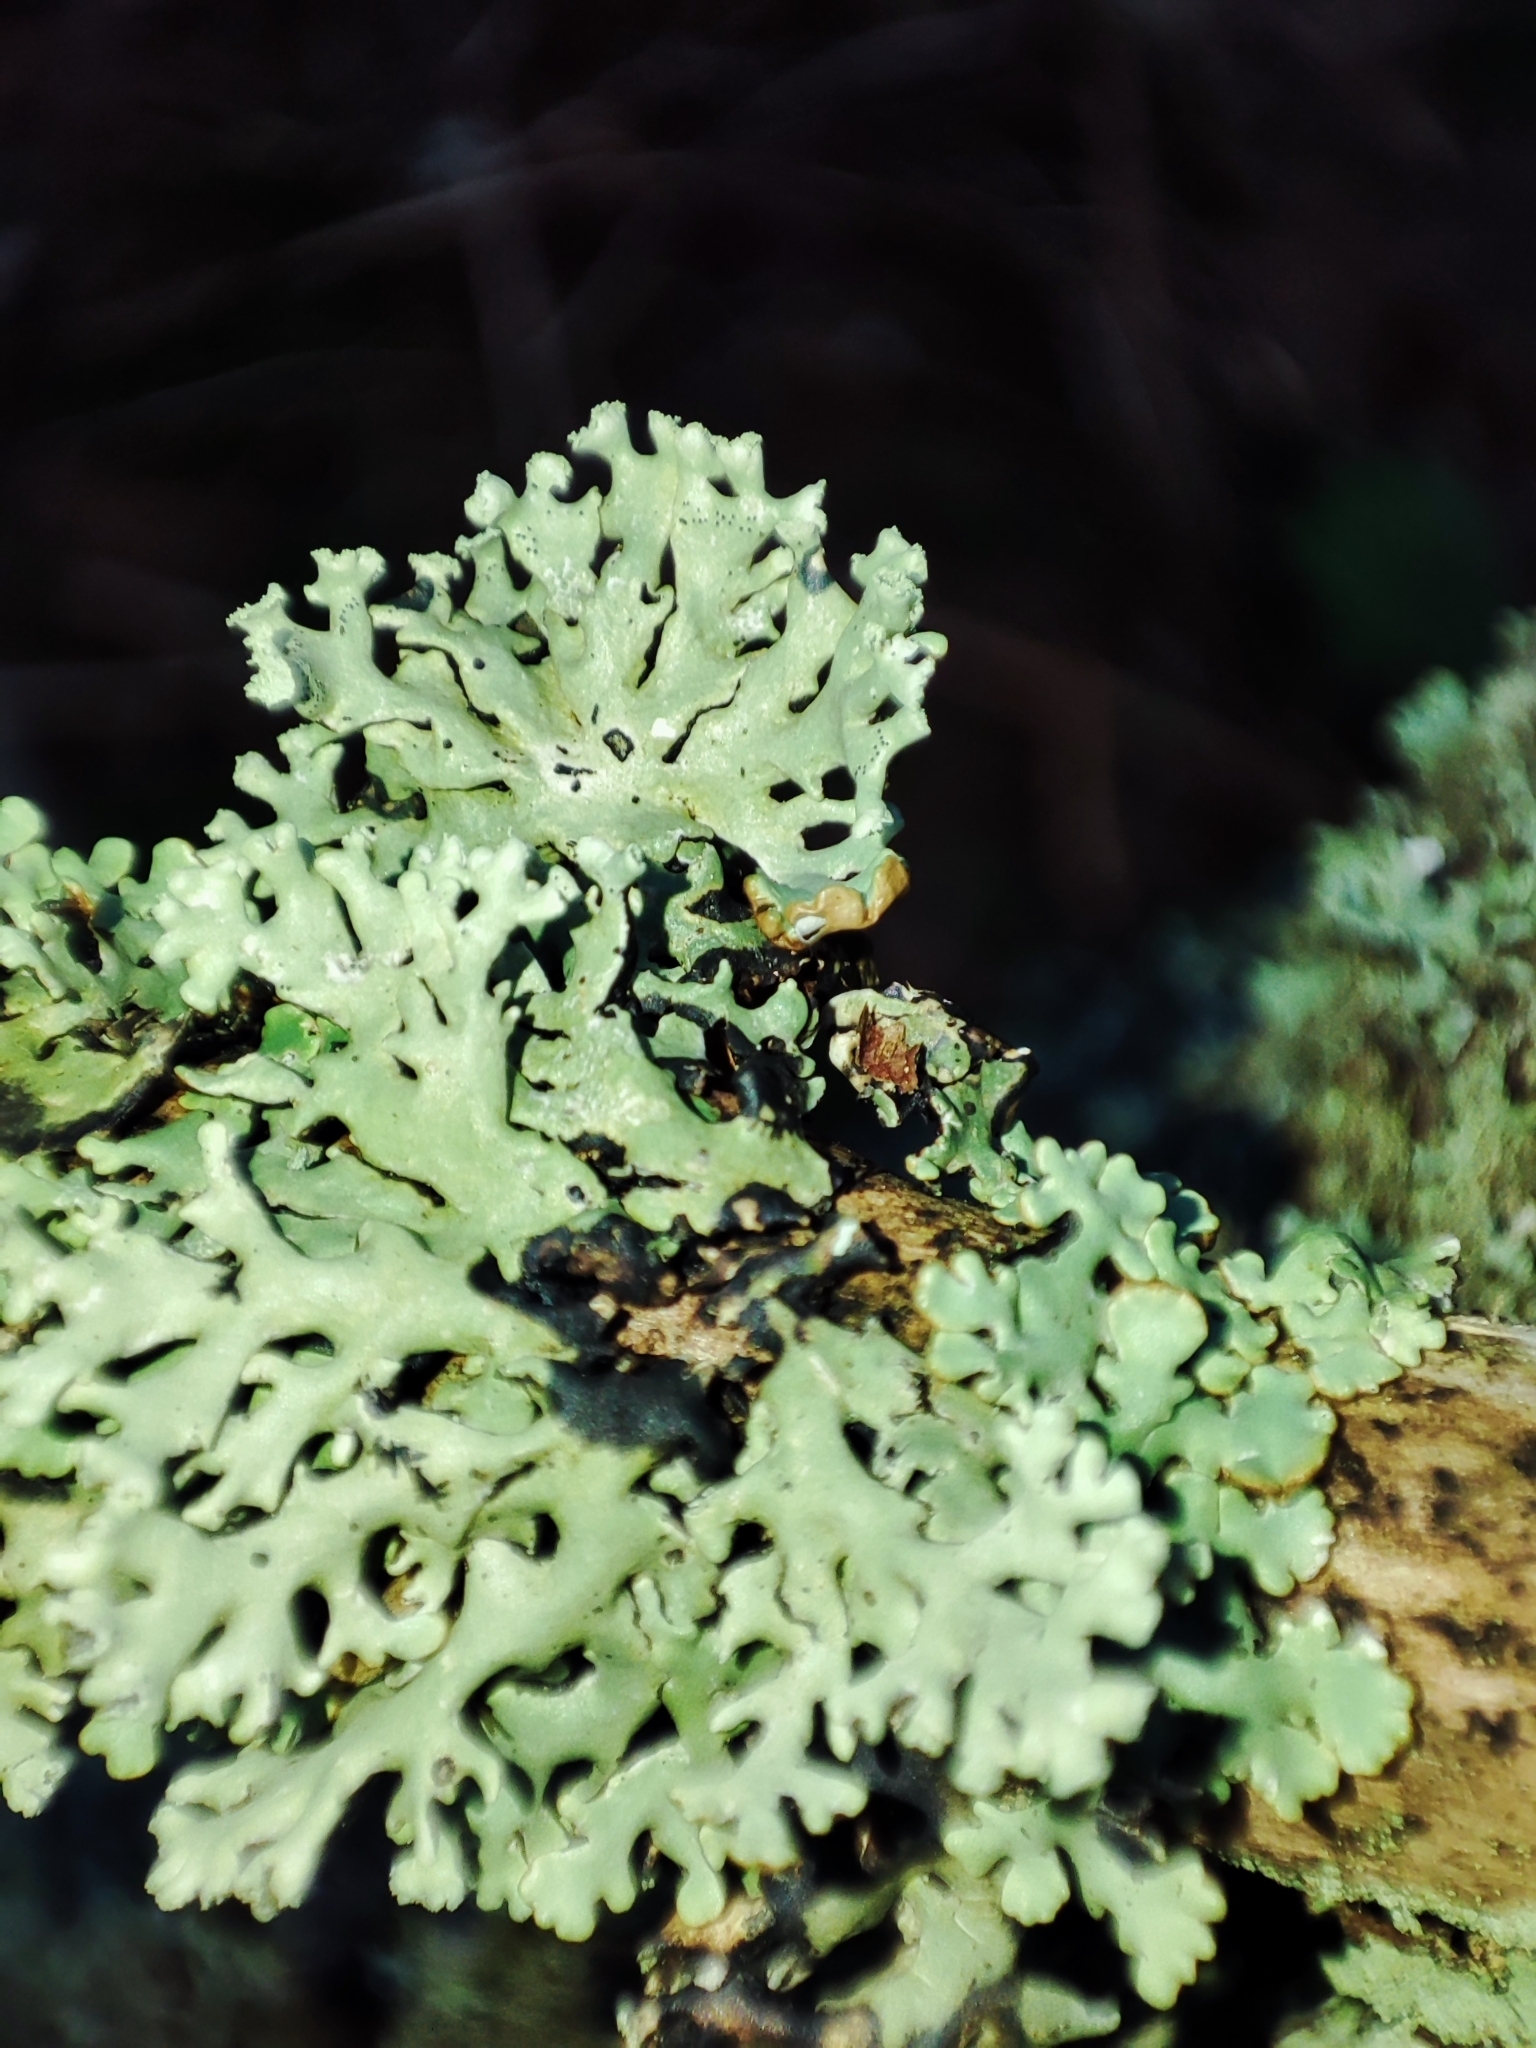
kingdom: Fungi
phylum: Ascomycota
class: Lecanoromycetes
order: Lecanorales
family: Parmeliaceae
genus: Hypogymnia
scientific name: Hypogymnia physodes
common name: Dark crottle
